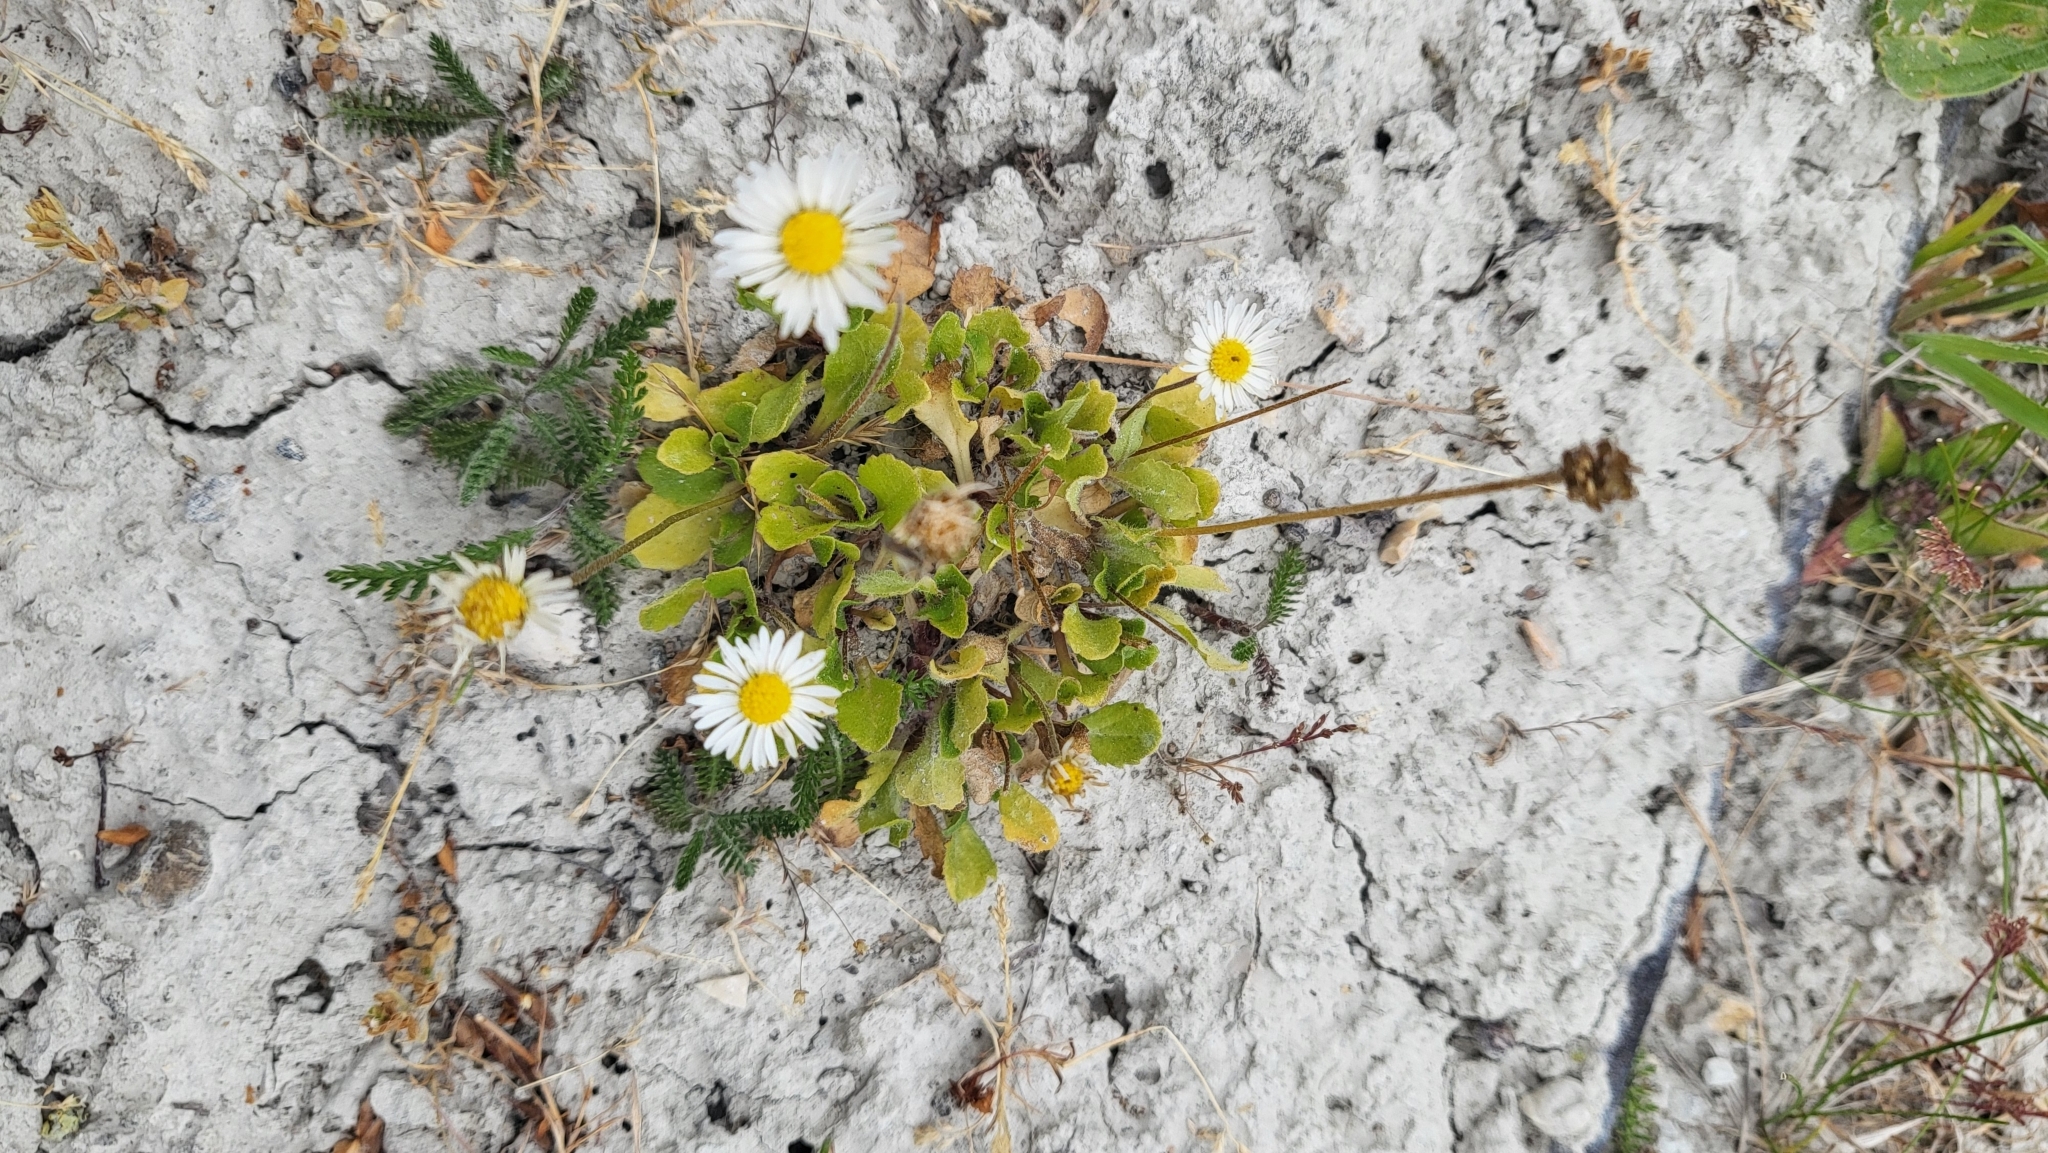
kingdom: Plantae
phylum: Tracheophyta
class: Magnoliopsida
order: Asterales
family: Asteraceae
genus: Bellis
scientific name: Bellis perennis
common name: Lawndaisy
